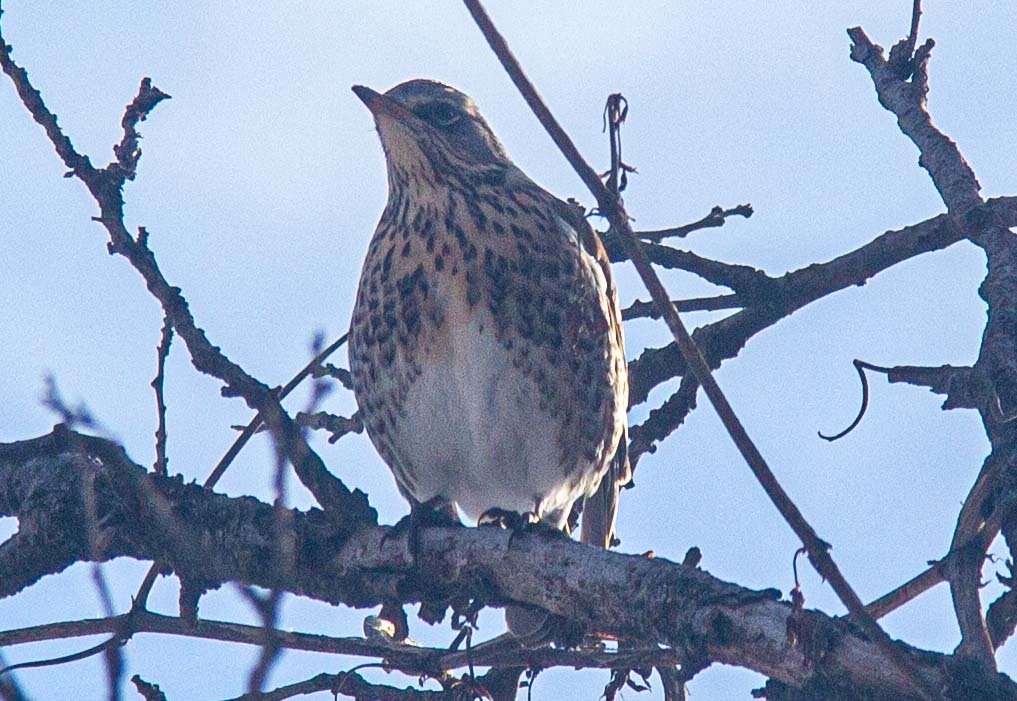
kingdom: Animalia
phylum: Chordata
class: Aves
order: Passeriformes
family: Turdidae
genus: Turdus
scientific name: Turdus pilaris
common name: Fieldfare
